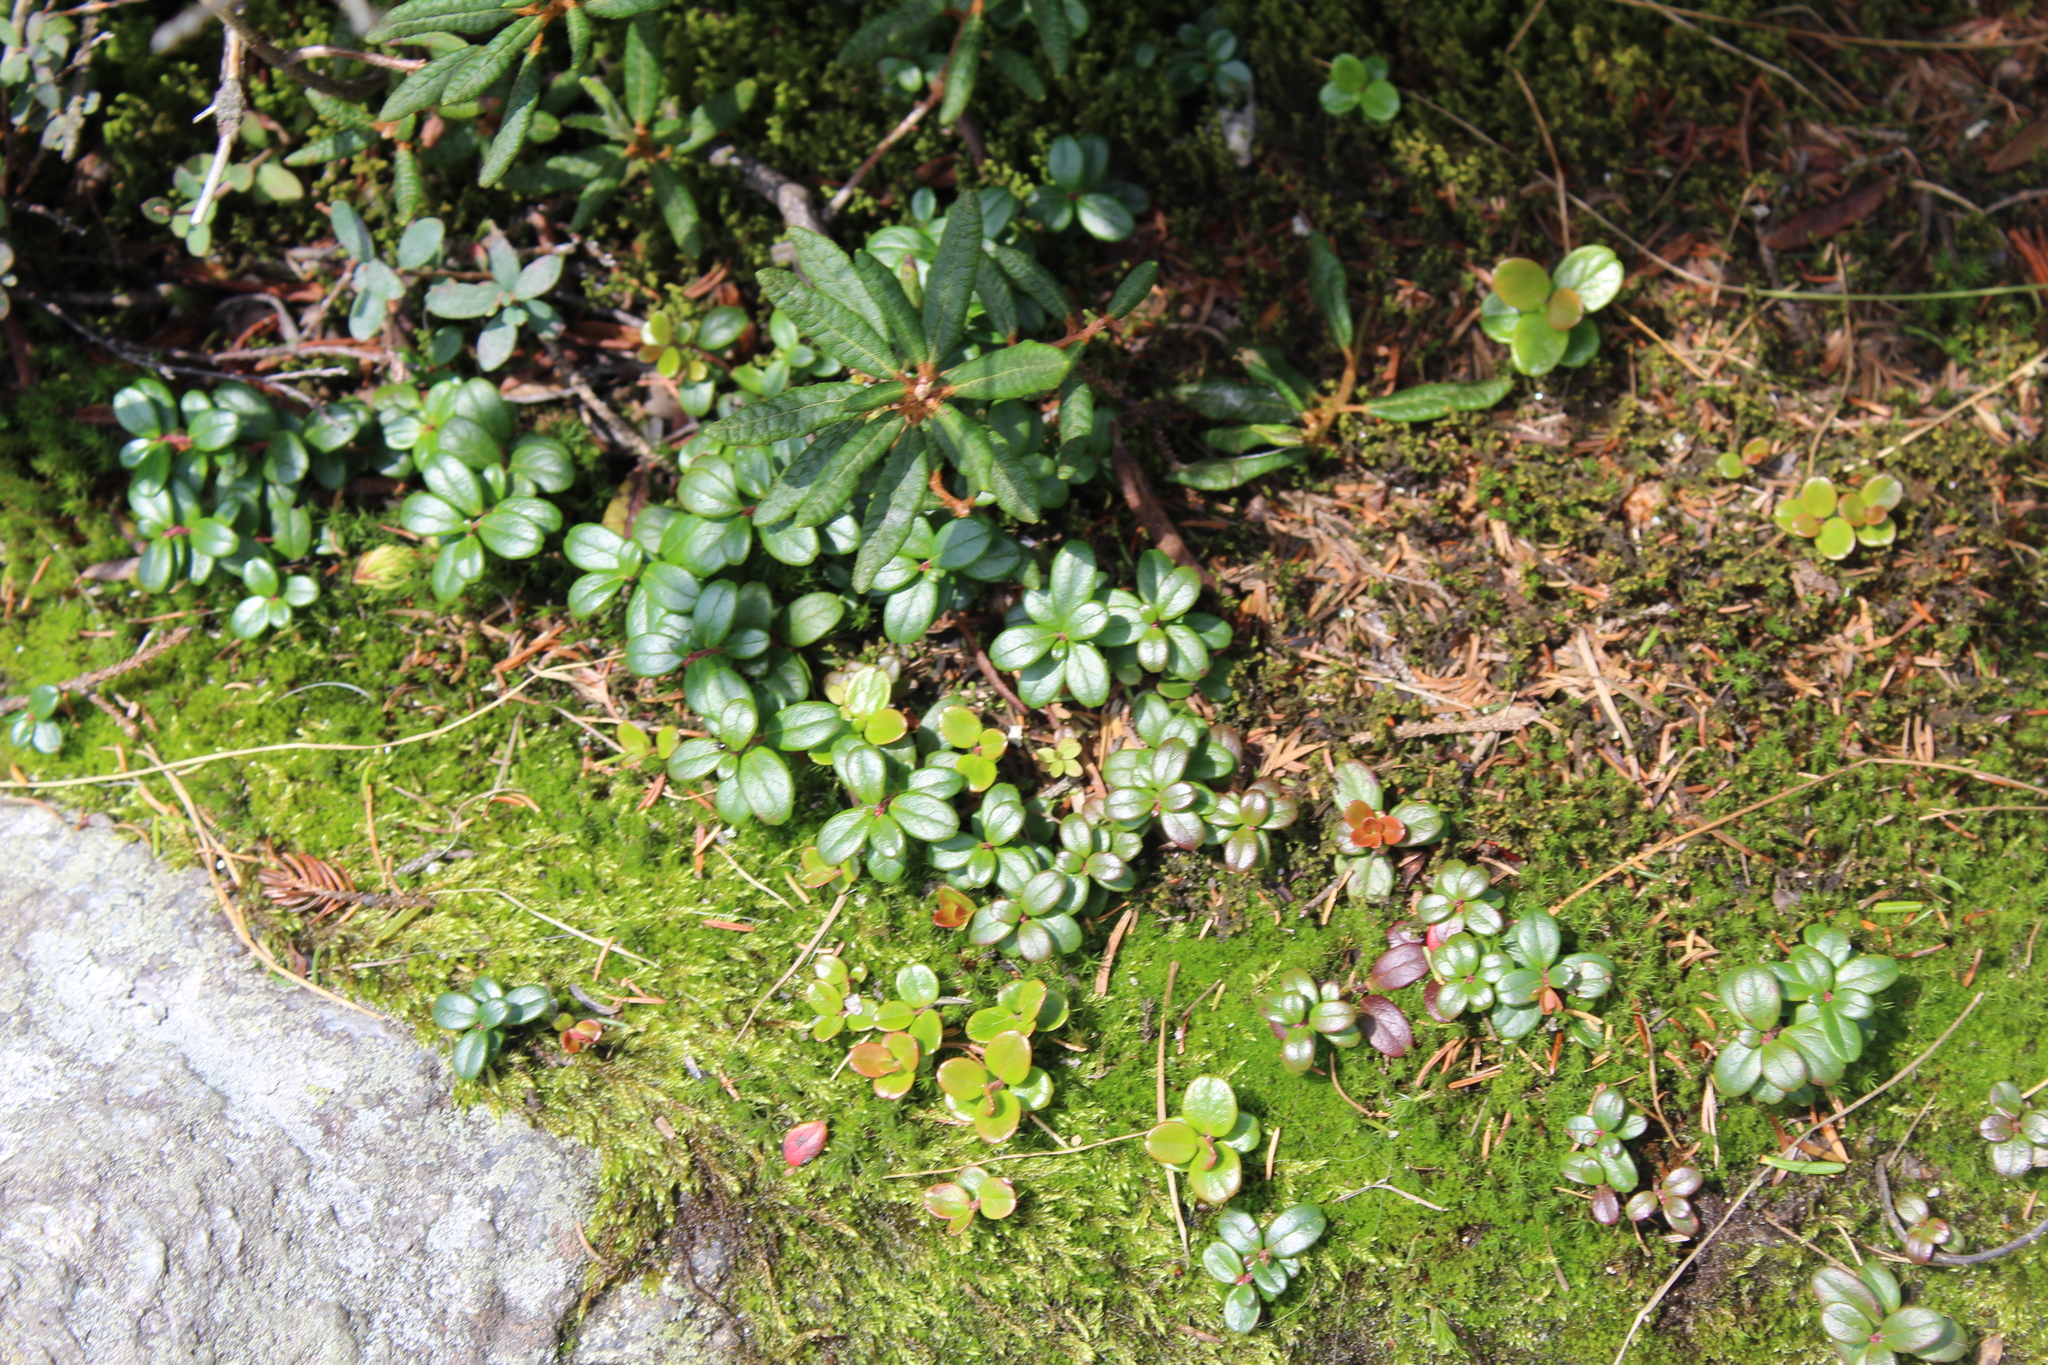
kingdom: Plantae
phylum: Tracheophyta
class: Magnoliopsida
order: Ericales
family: Ericaceae
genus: Vaccinium
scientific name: Vaccinium vitis-idaea
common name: Cowberry
